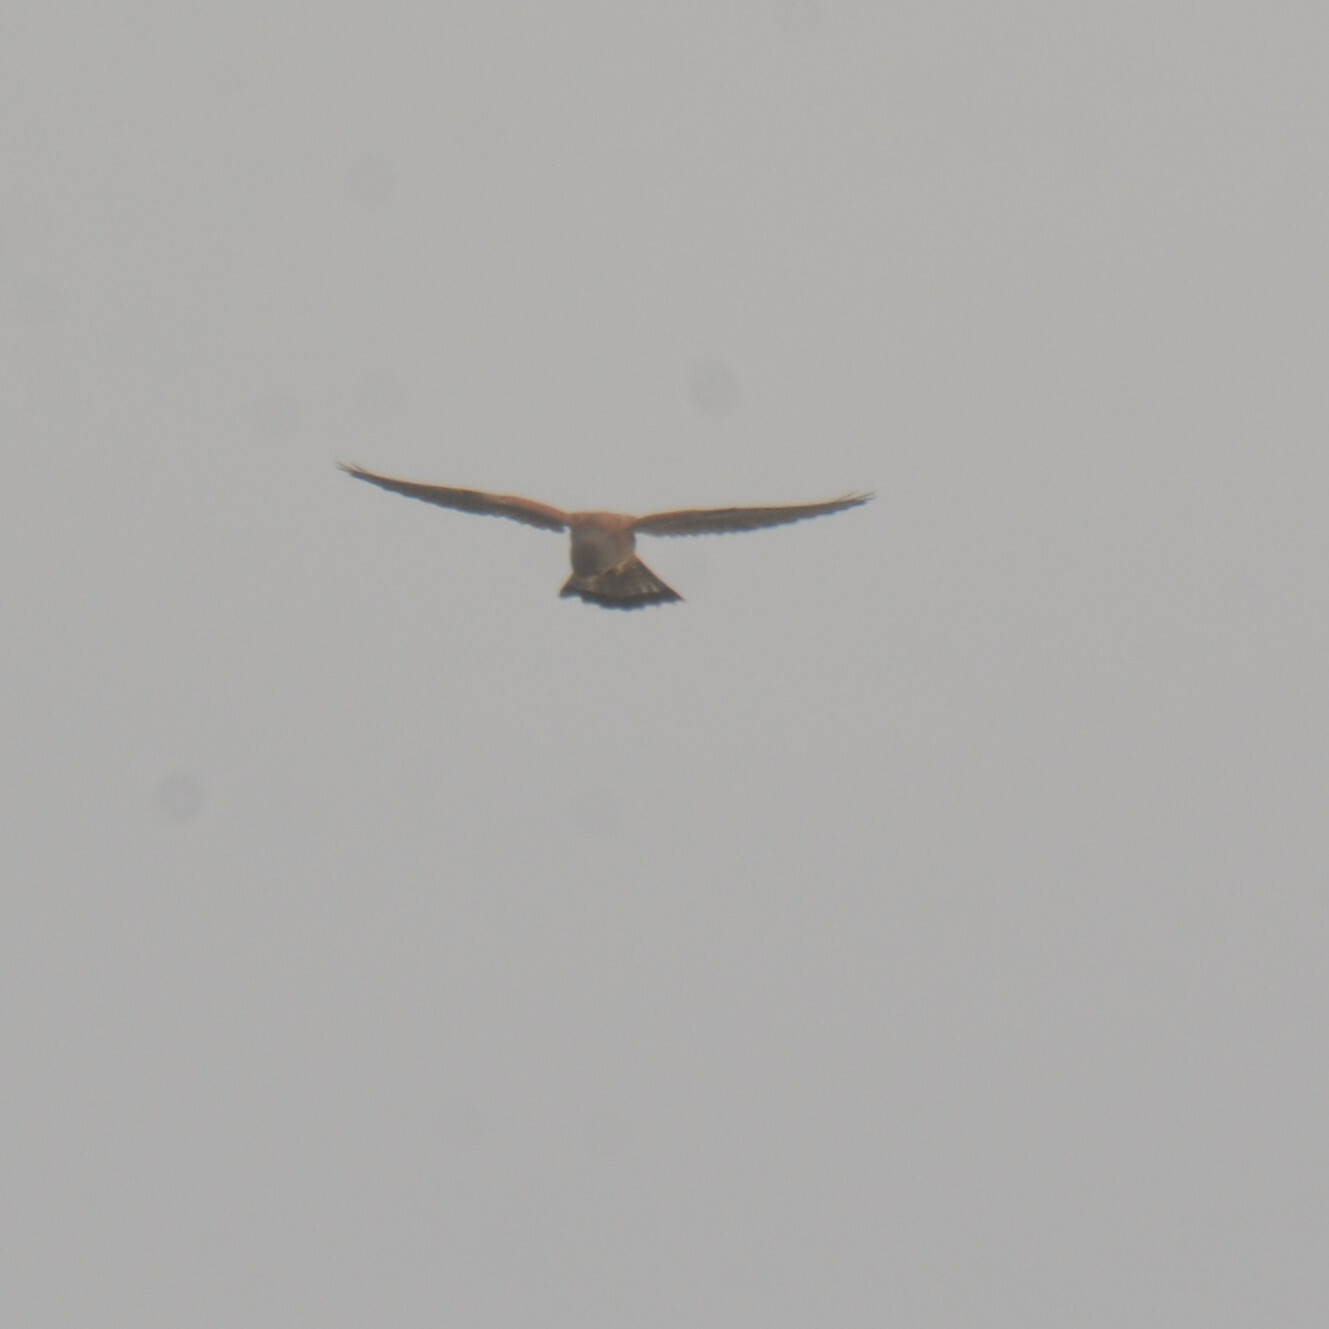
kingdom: Animalia
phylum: Chordata
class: Aves
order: Falconiformes
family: Falconidae
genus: Falco
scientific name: Falco tinnunculus
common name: Common kestrel
